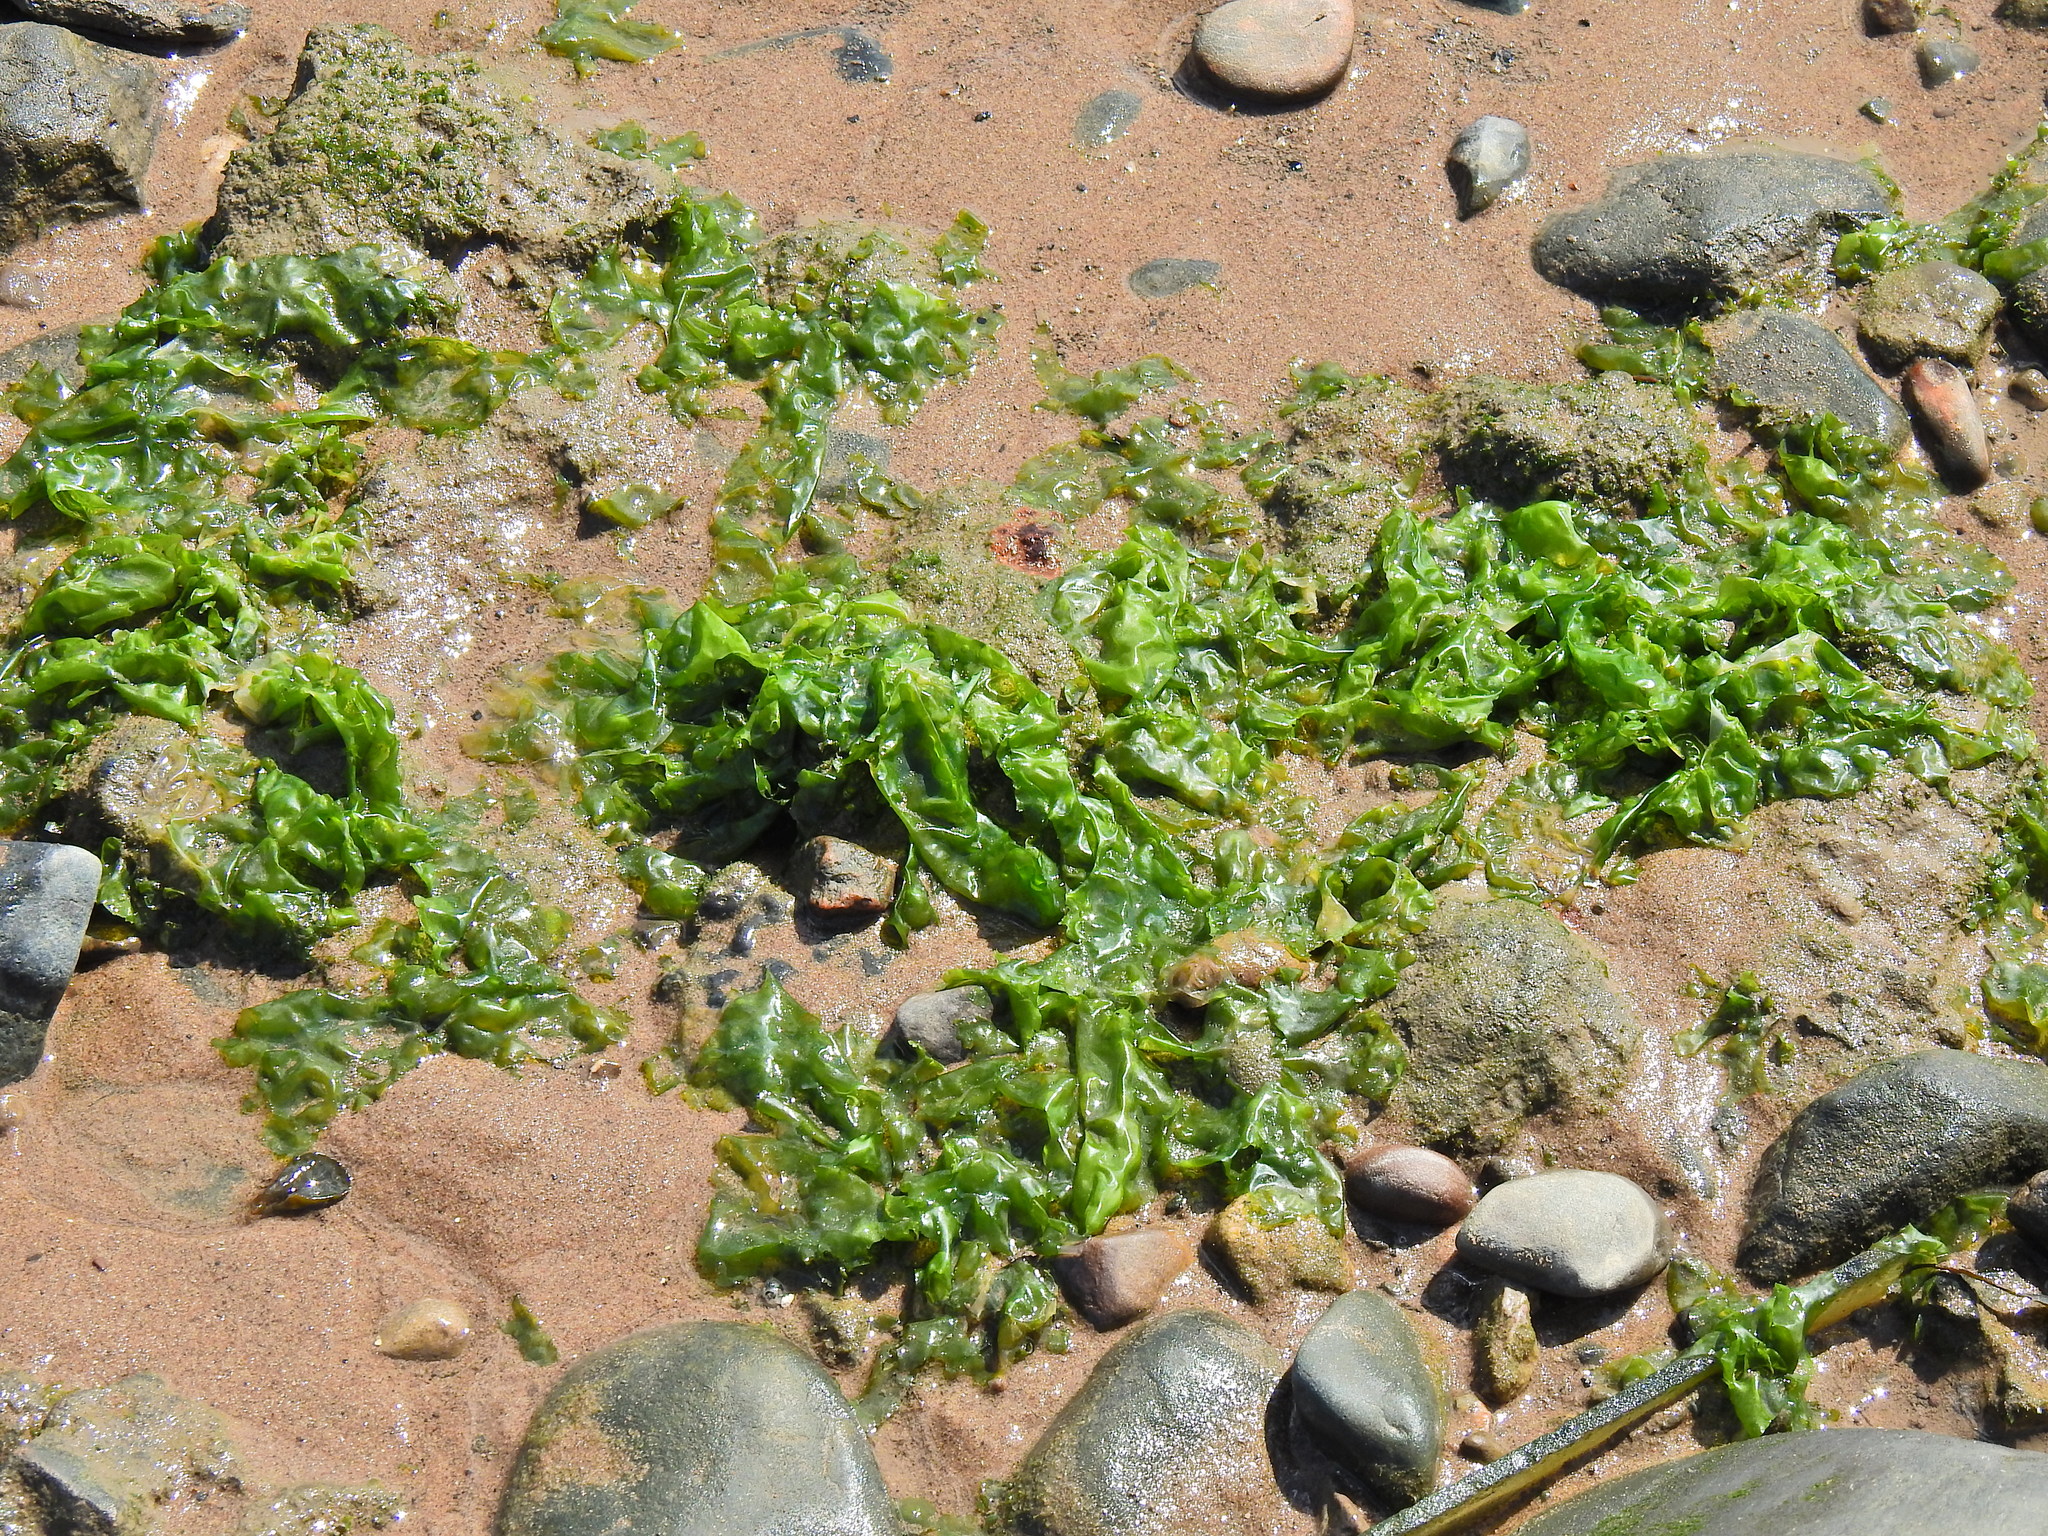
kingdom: Plantae
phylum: Chlorophyta
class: Ulvophyceae
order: Ulvales
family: Ulvaceae
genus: Ulva
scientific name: Ulva lactuca
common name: Sea lettuce
